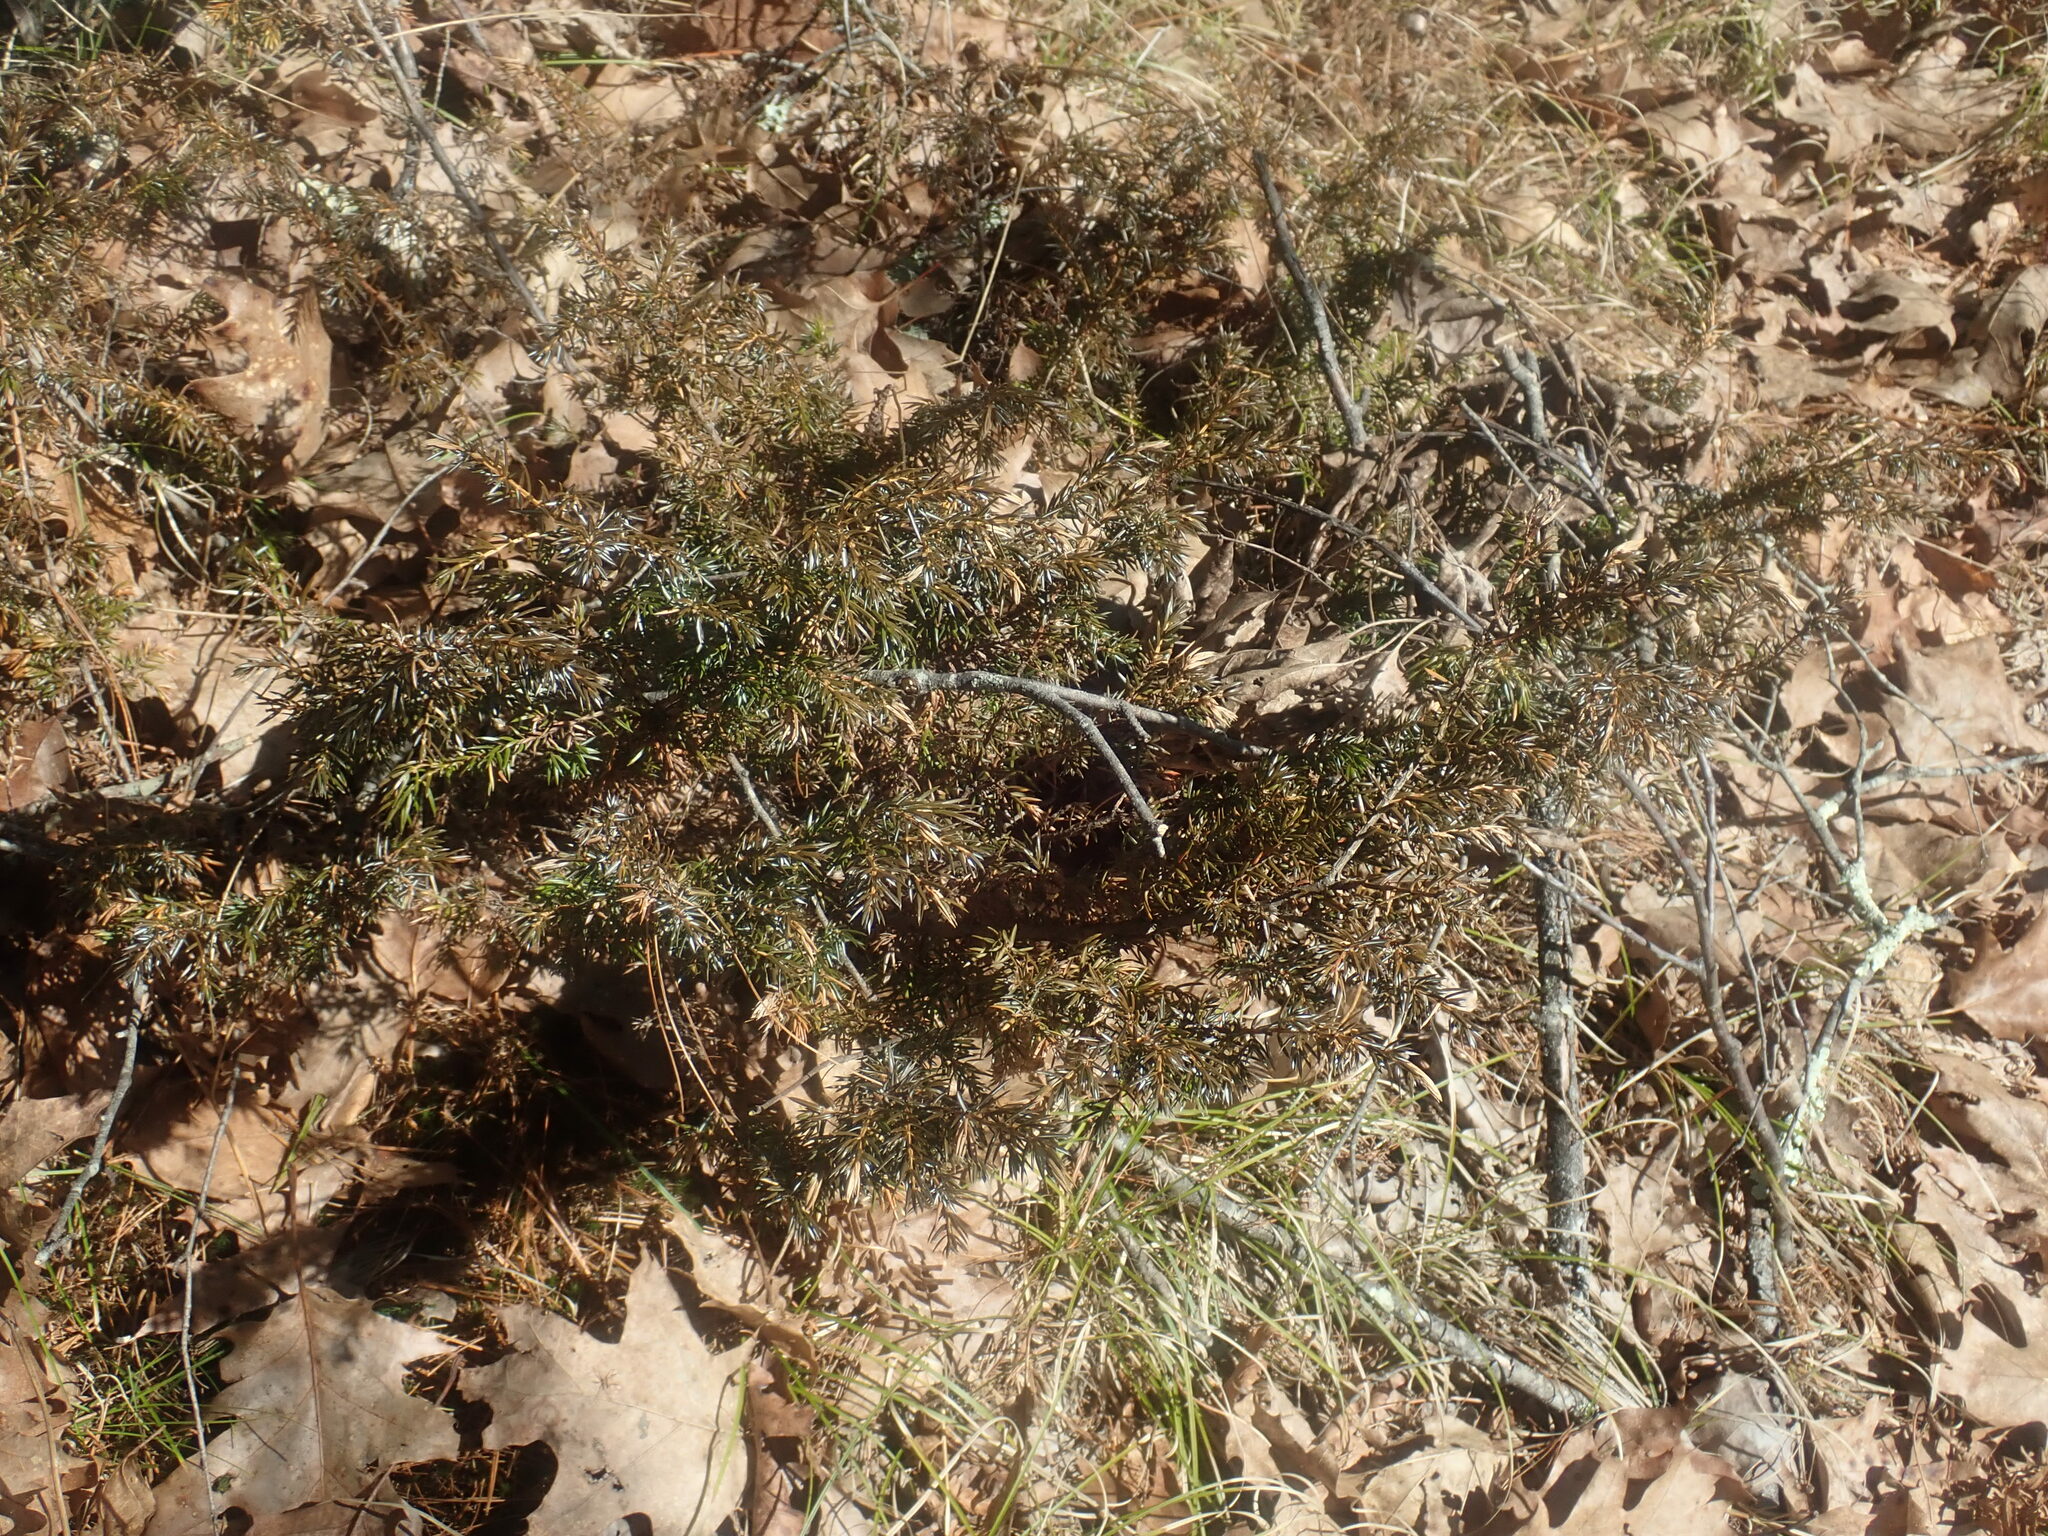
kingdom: Plantae
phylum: Tracheophyta
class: Pinopsida
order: Pinales
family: Cupressaceae
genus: Juniperus
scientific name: Juniperus communis
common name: Common juniper
